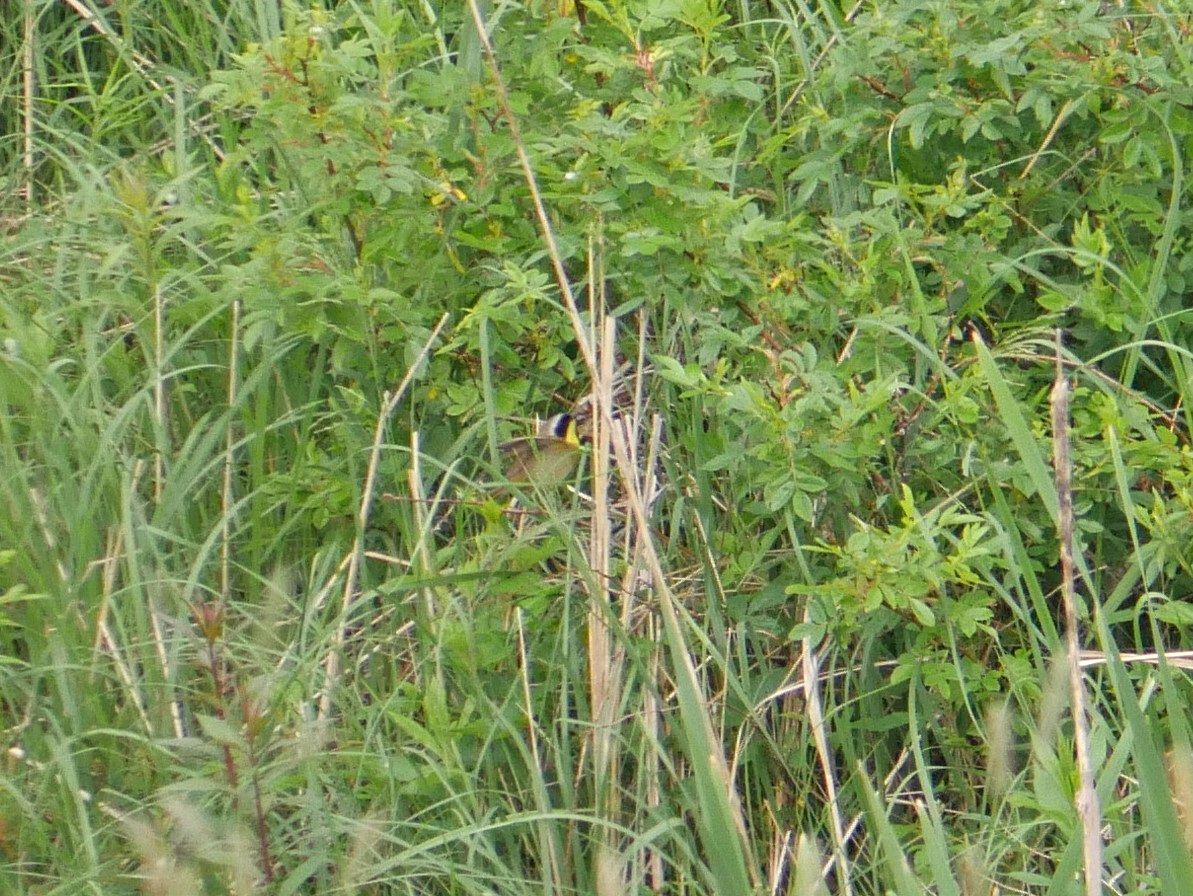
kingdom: Animalia
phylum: Chordata
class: Aves
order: Passeriformes
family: Parulidae
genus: Geothlypis
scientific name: Geothlypis trichas
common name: Common yellowthroat
